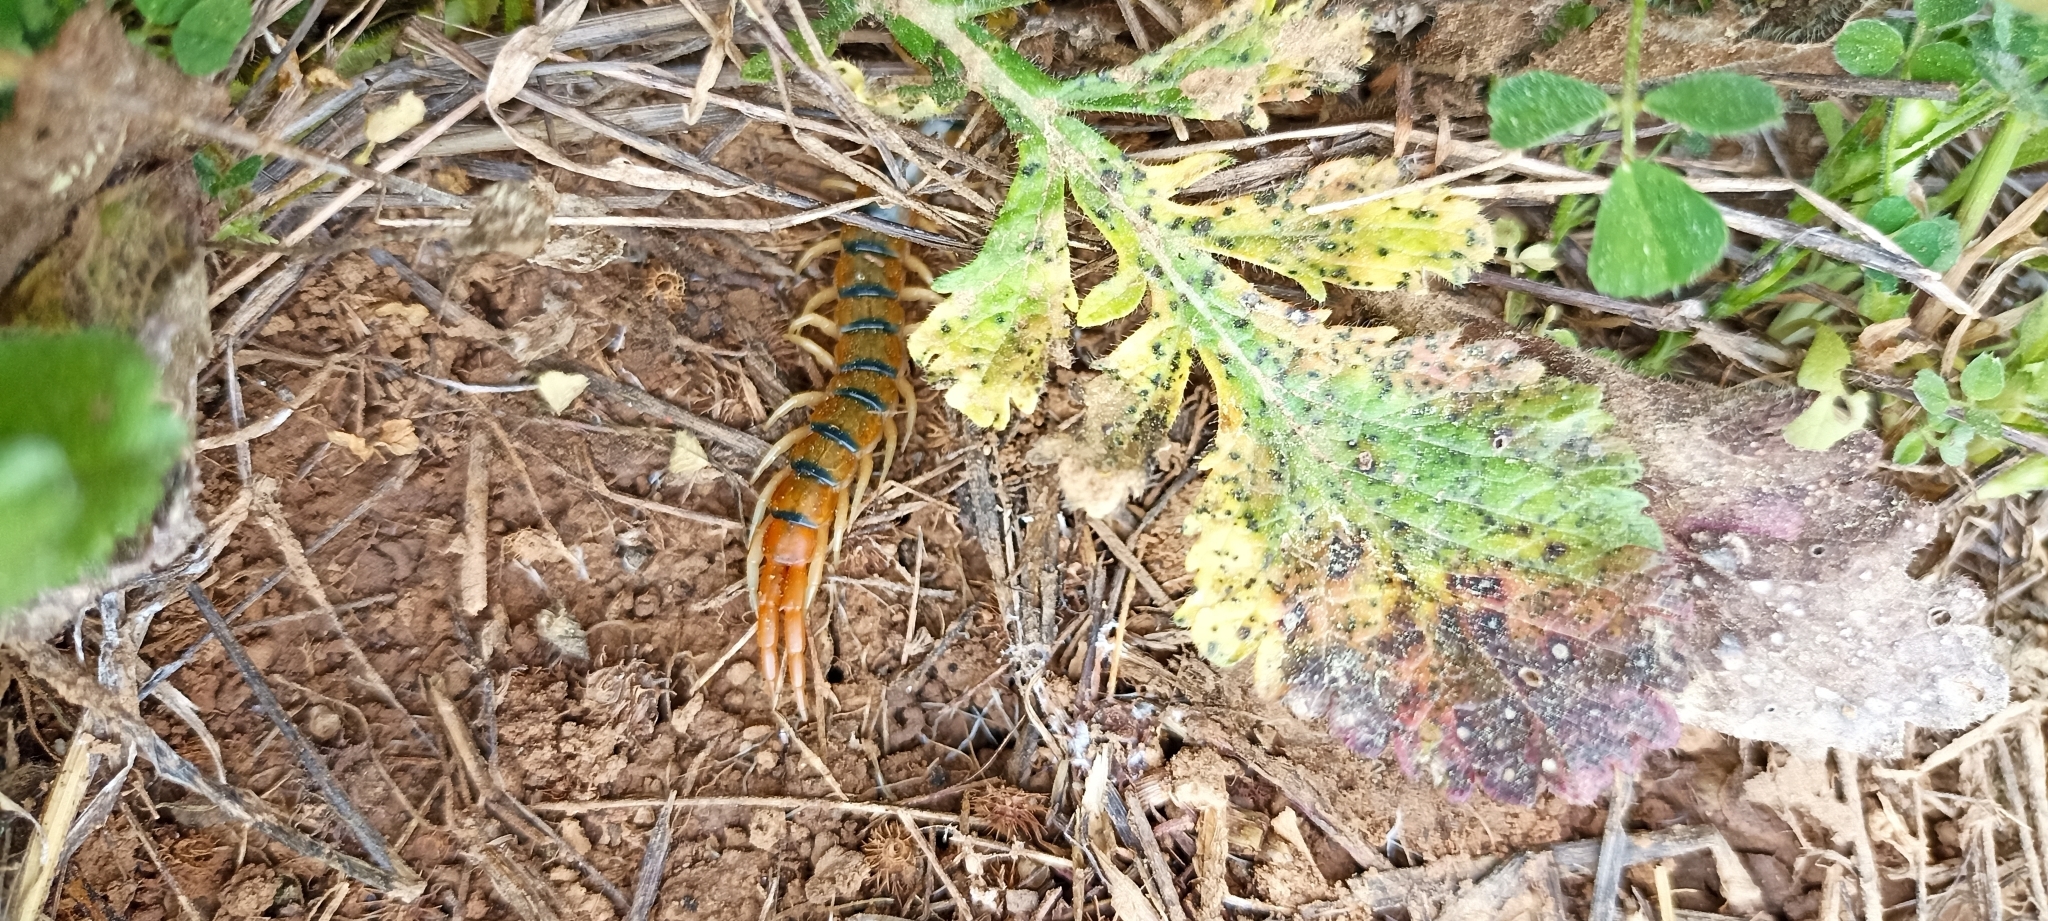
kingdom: Animalia
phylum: Arthropoda
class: Chilopoda
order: Scolopendromorpha
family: Scolopendridae
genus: Scolopendra
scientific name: Scolopendra cingulata
